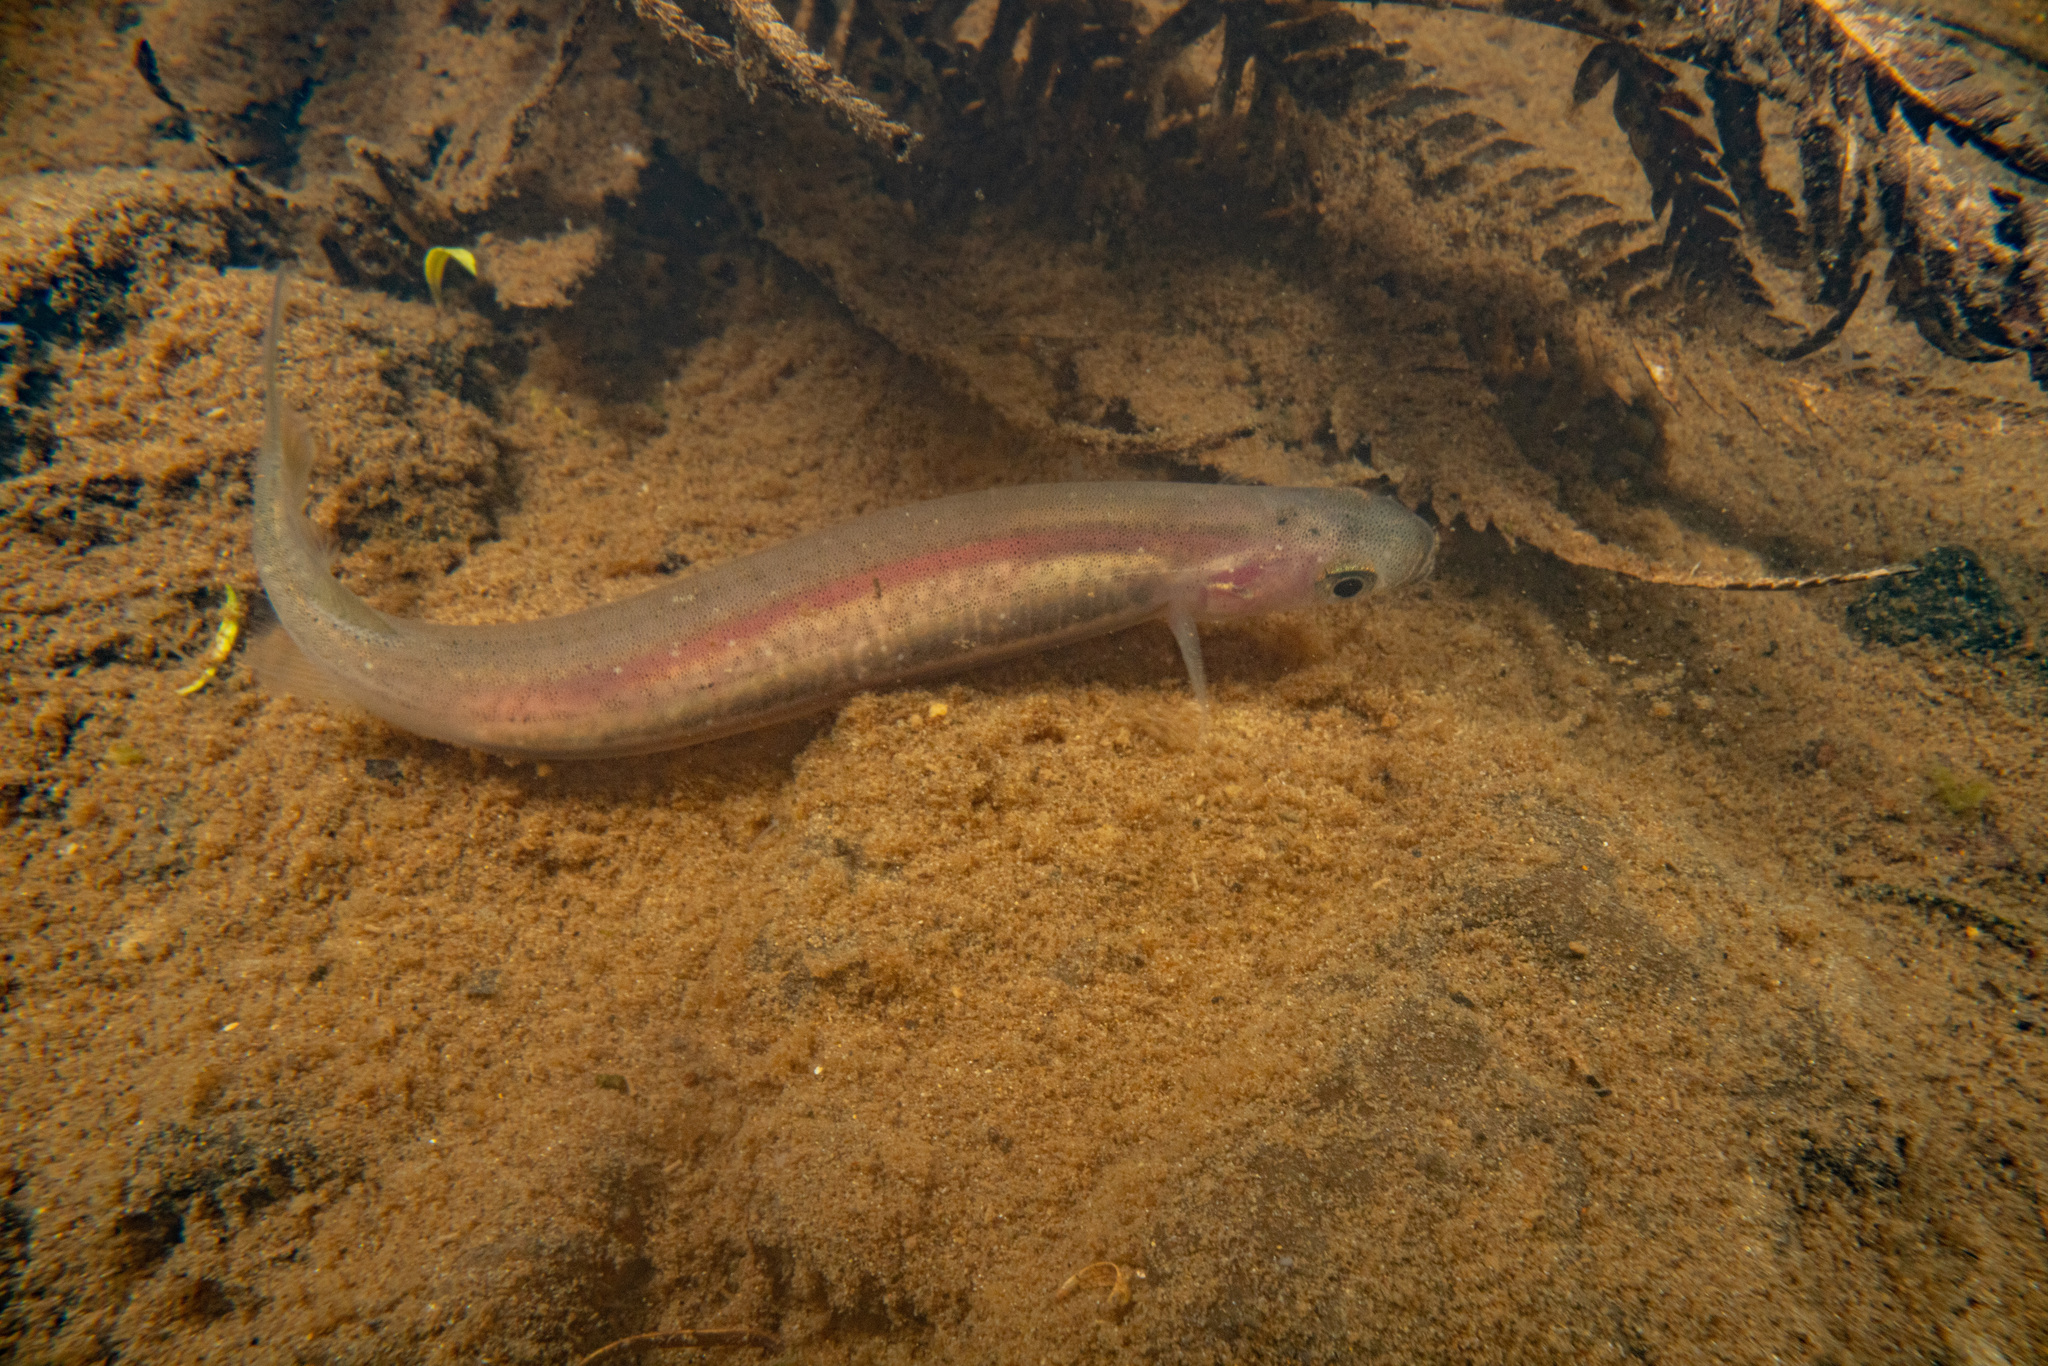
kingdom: Animalia
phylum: Chordata
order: Osmeriformes
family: Galaxiidae
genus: Galaxias
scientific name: Galaxias maculatus
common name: Common galaxias
